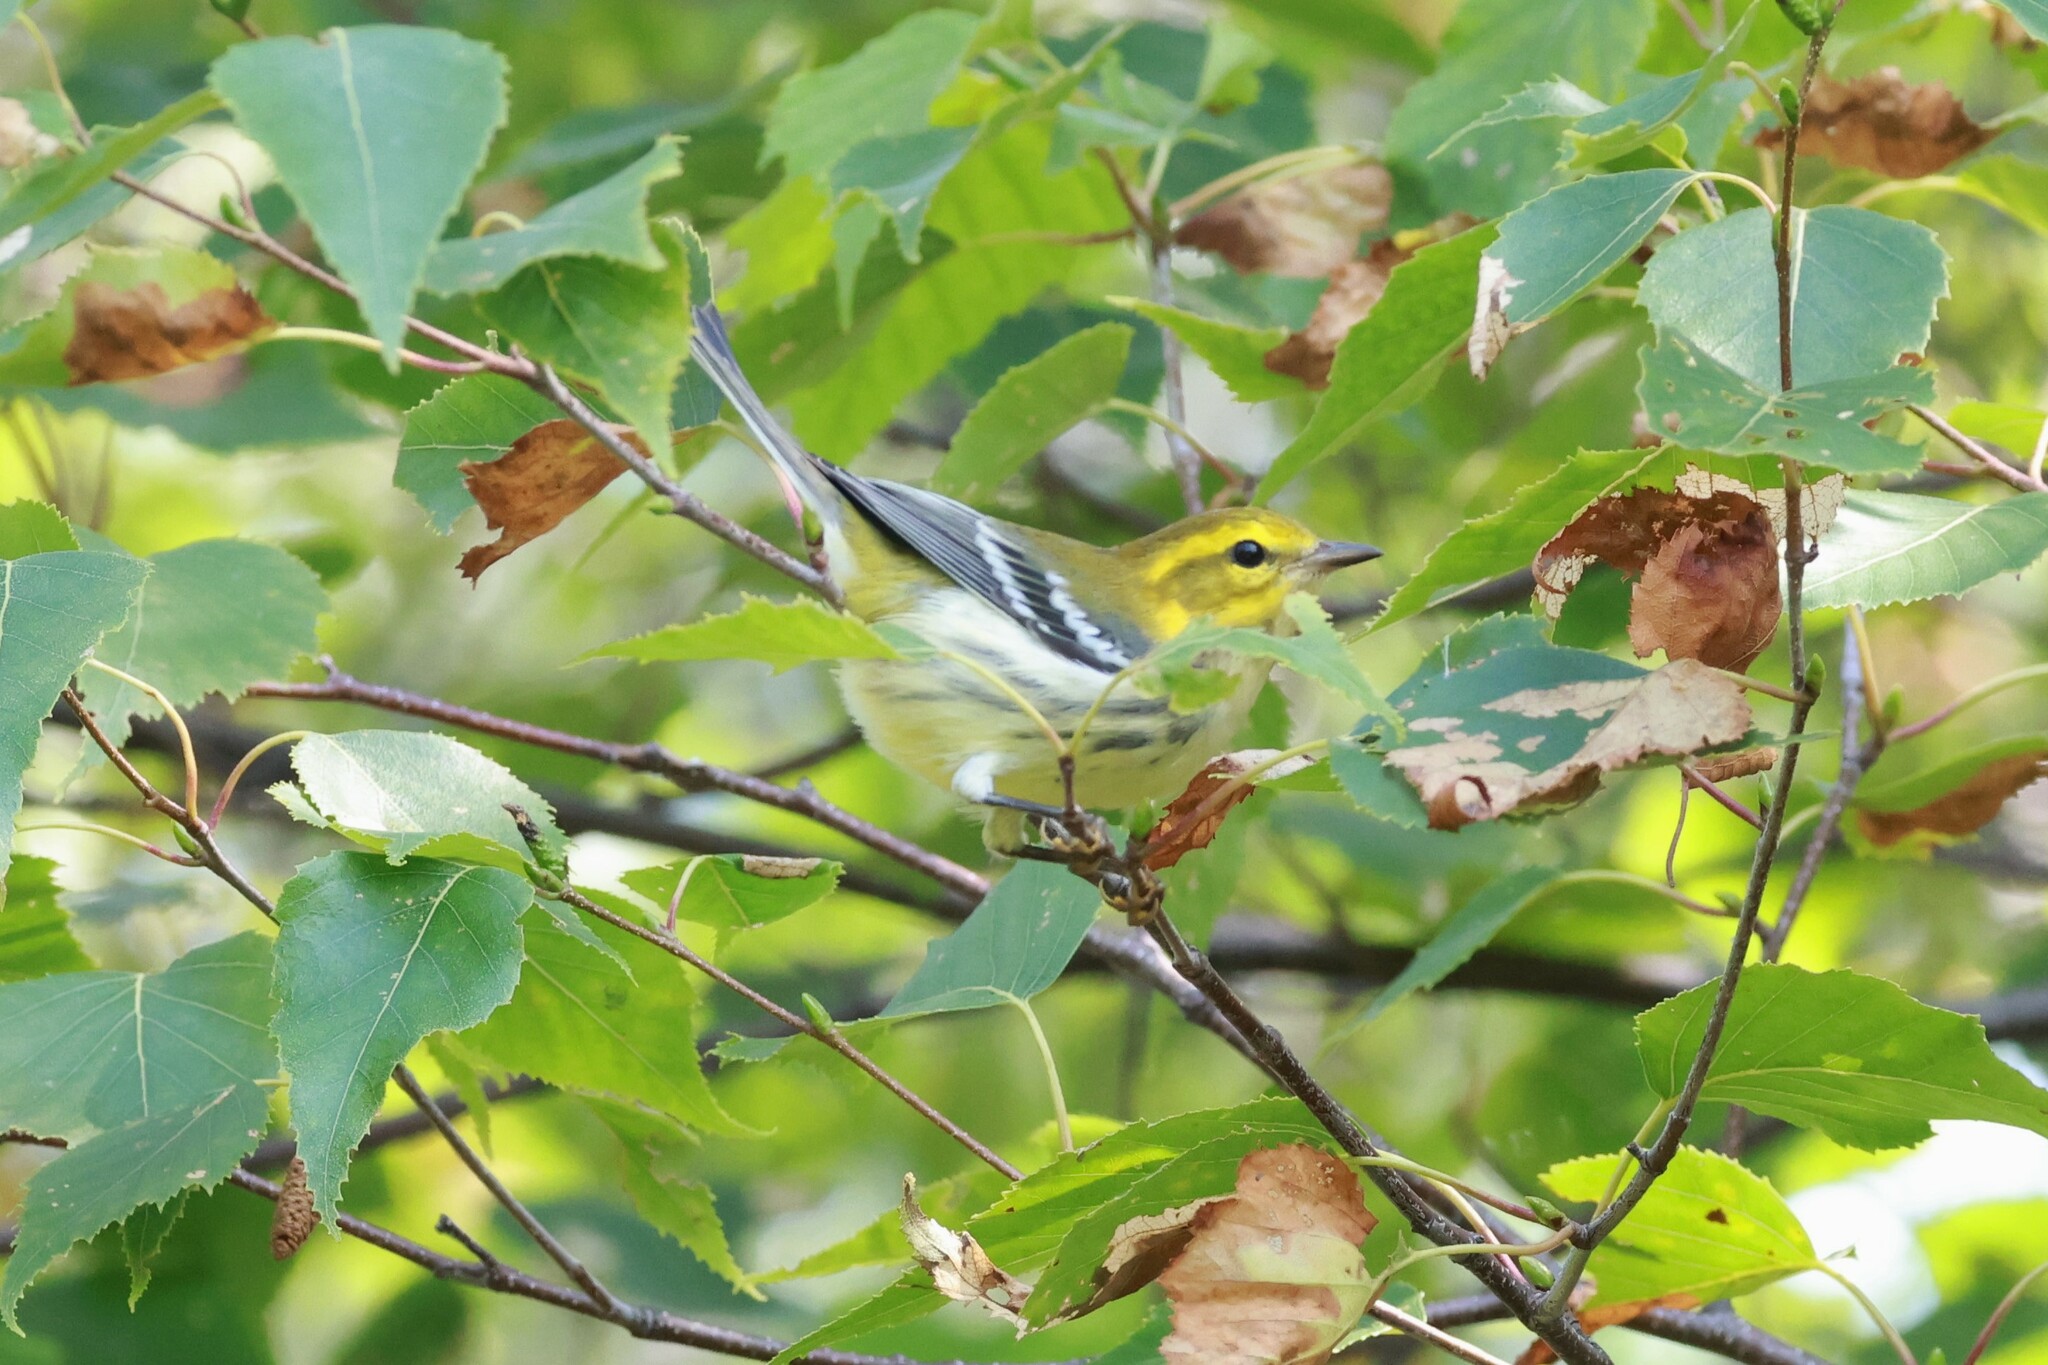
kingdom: Animalia
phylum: Chordata
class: Aves
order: Passeriformes
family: Parulidae
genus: Setophaga
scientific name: Setophaga virens
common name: Black-throated green warbler
